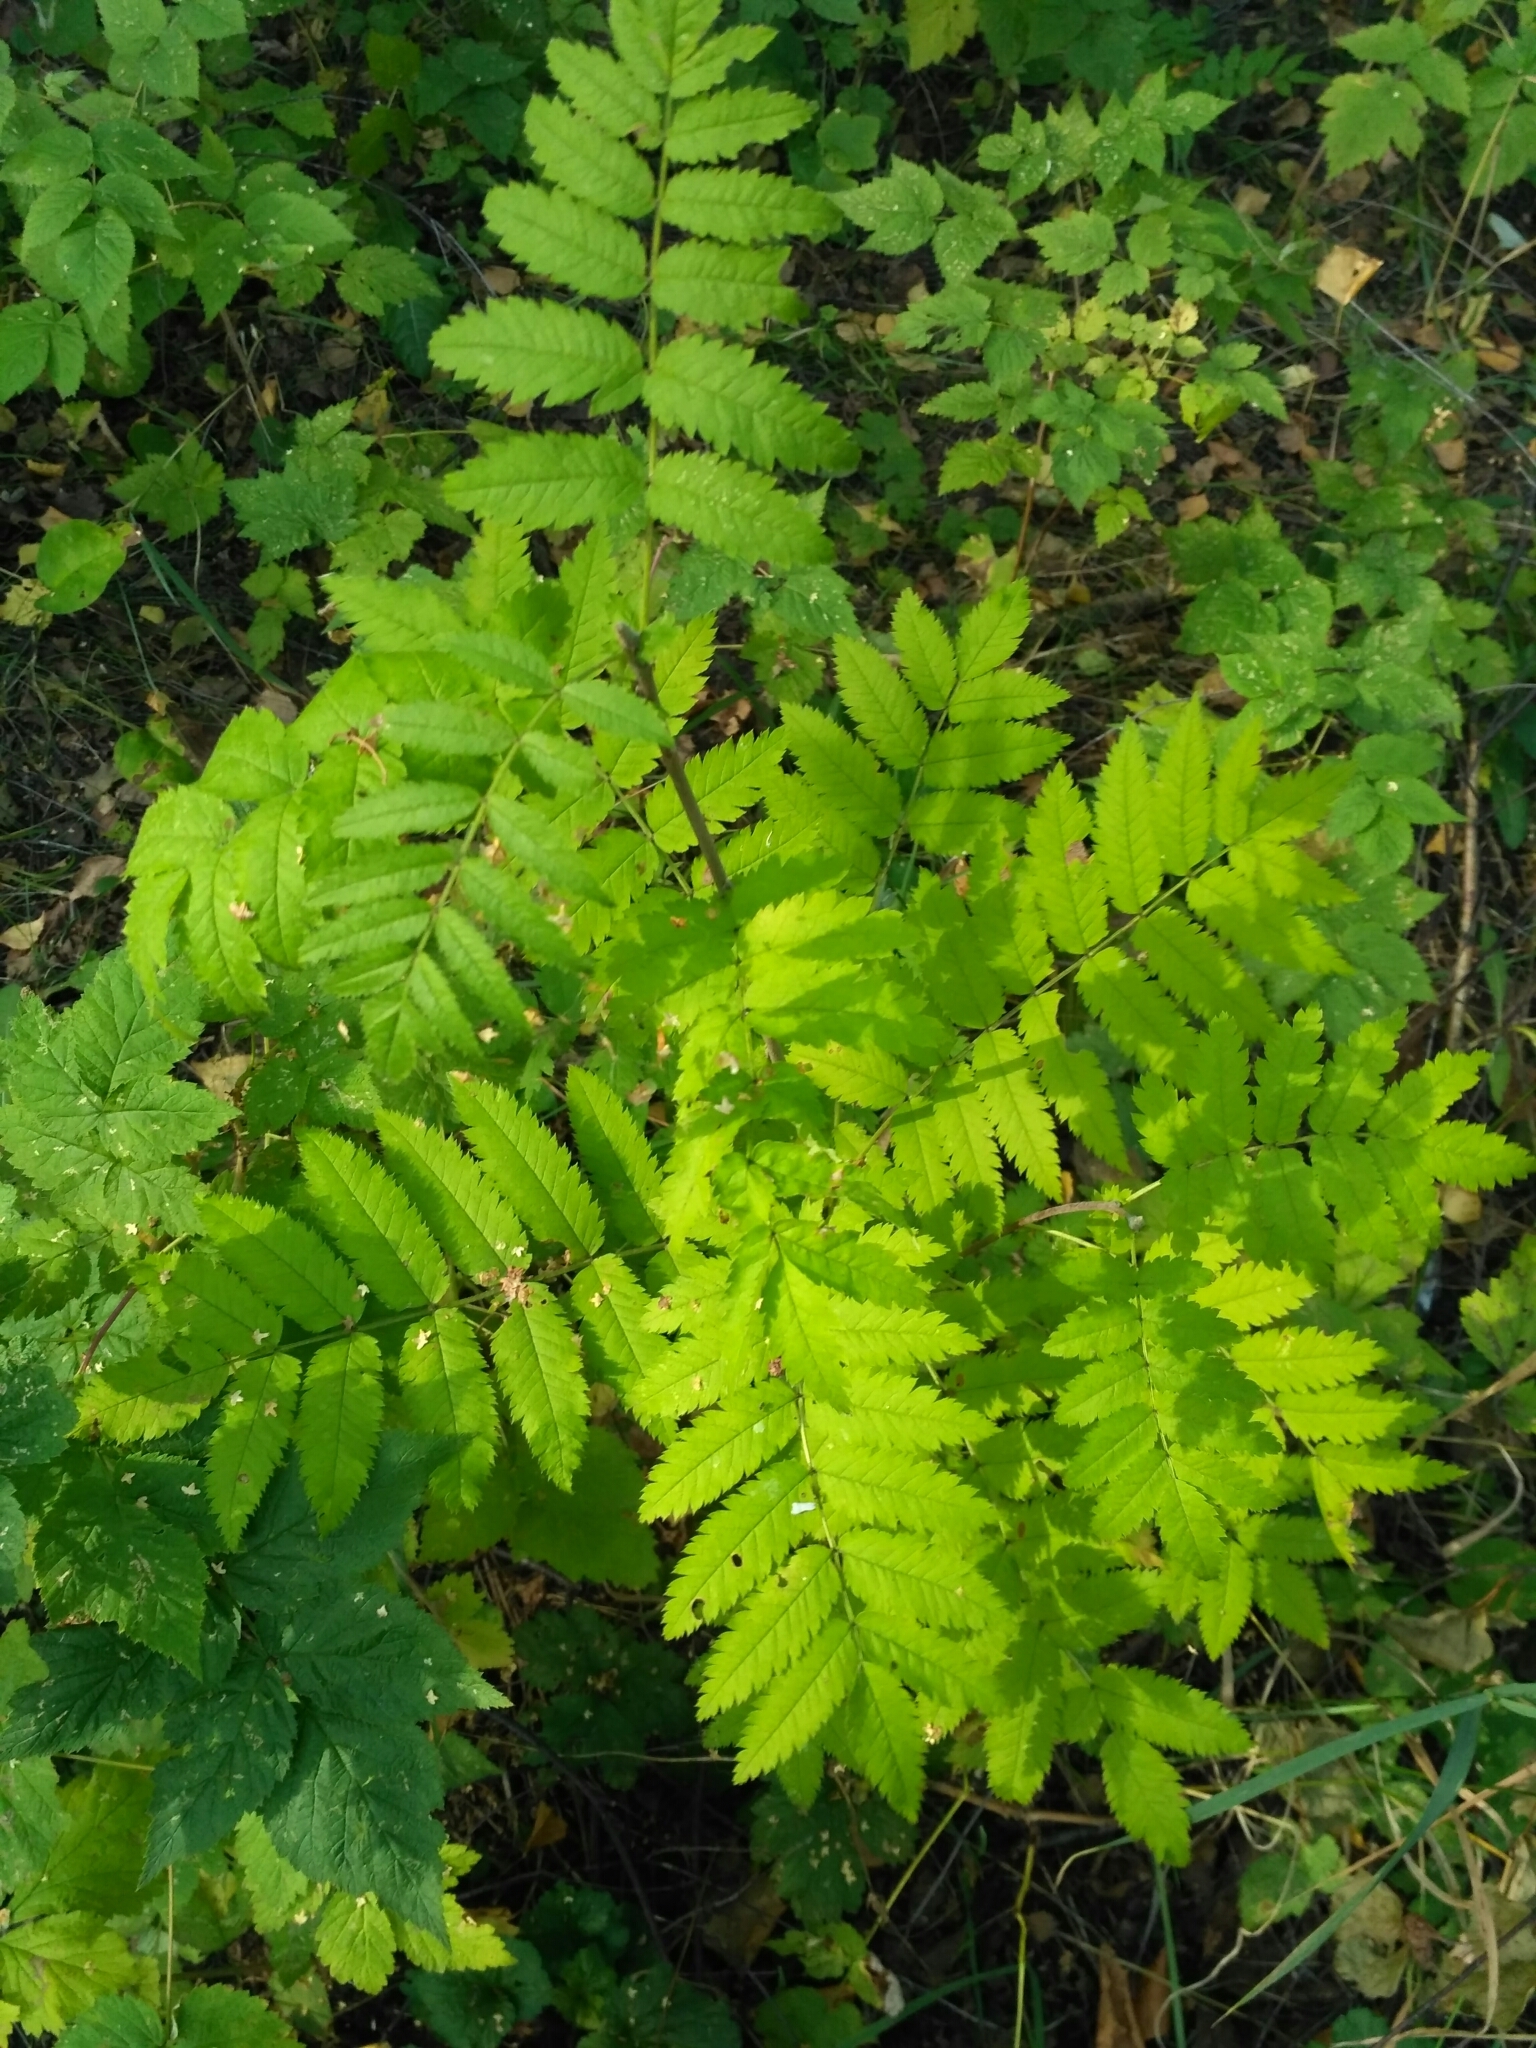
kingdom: Plantae
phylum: Tracheophyta
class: Magnoliopsida
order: Rosales
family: Rosaceae
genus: Sorbus
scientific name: Sorbus aucuparia
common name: Rowan
